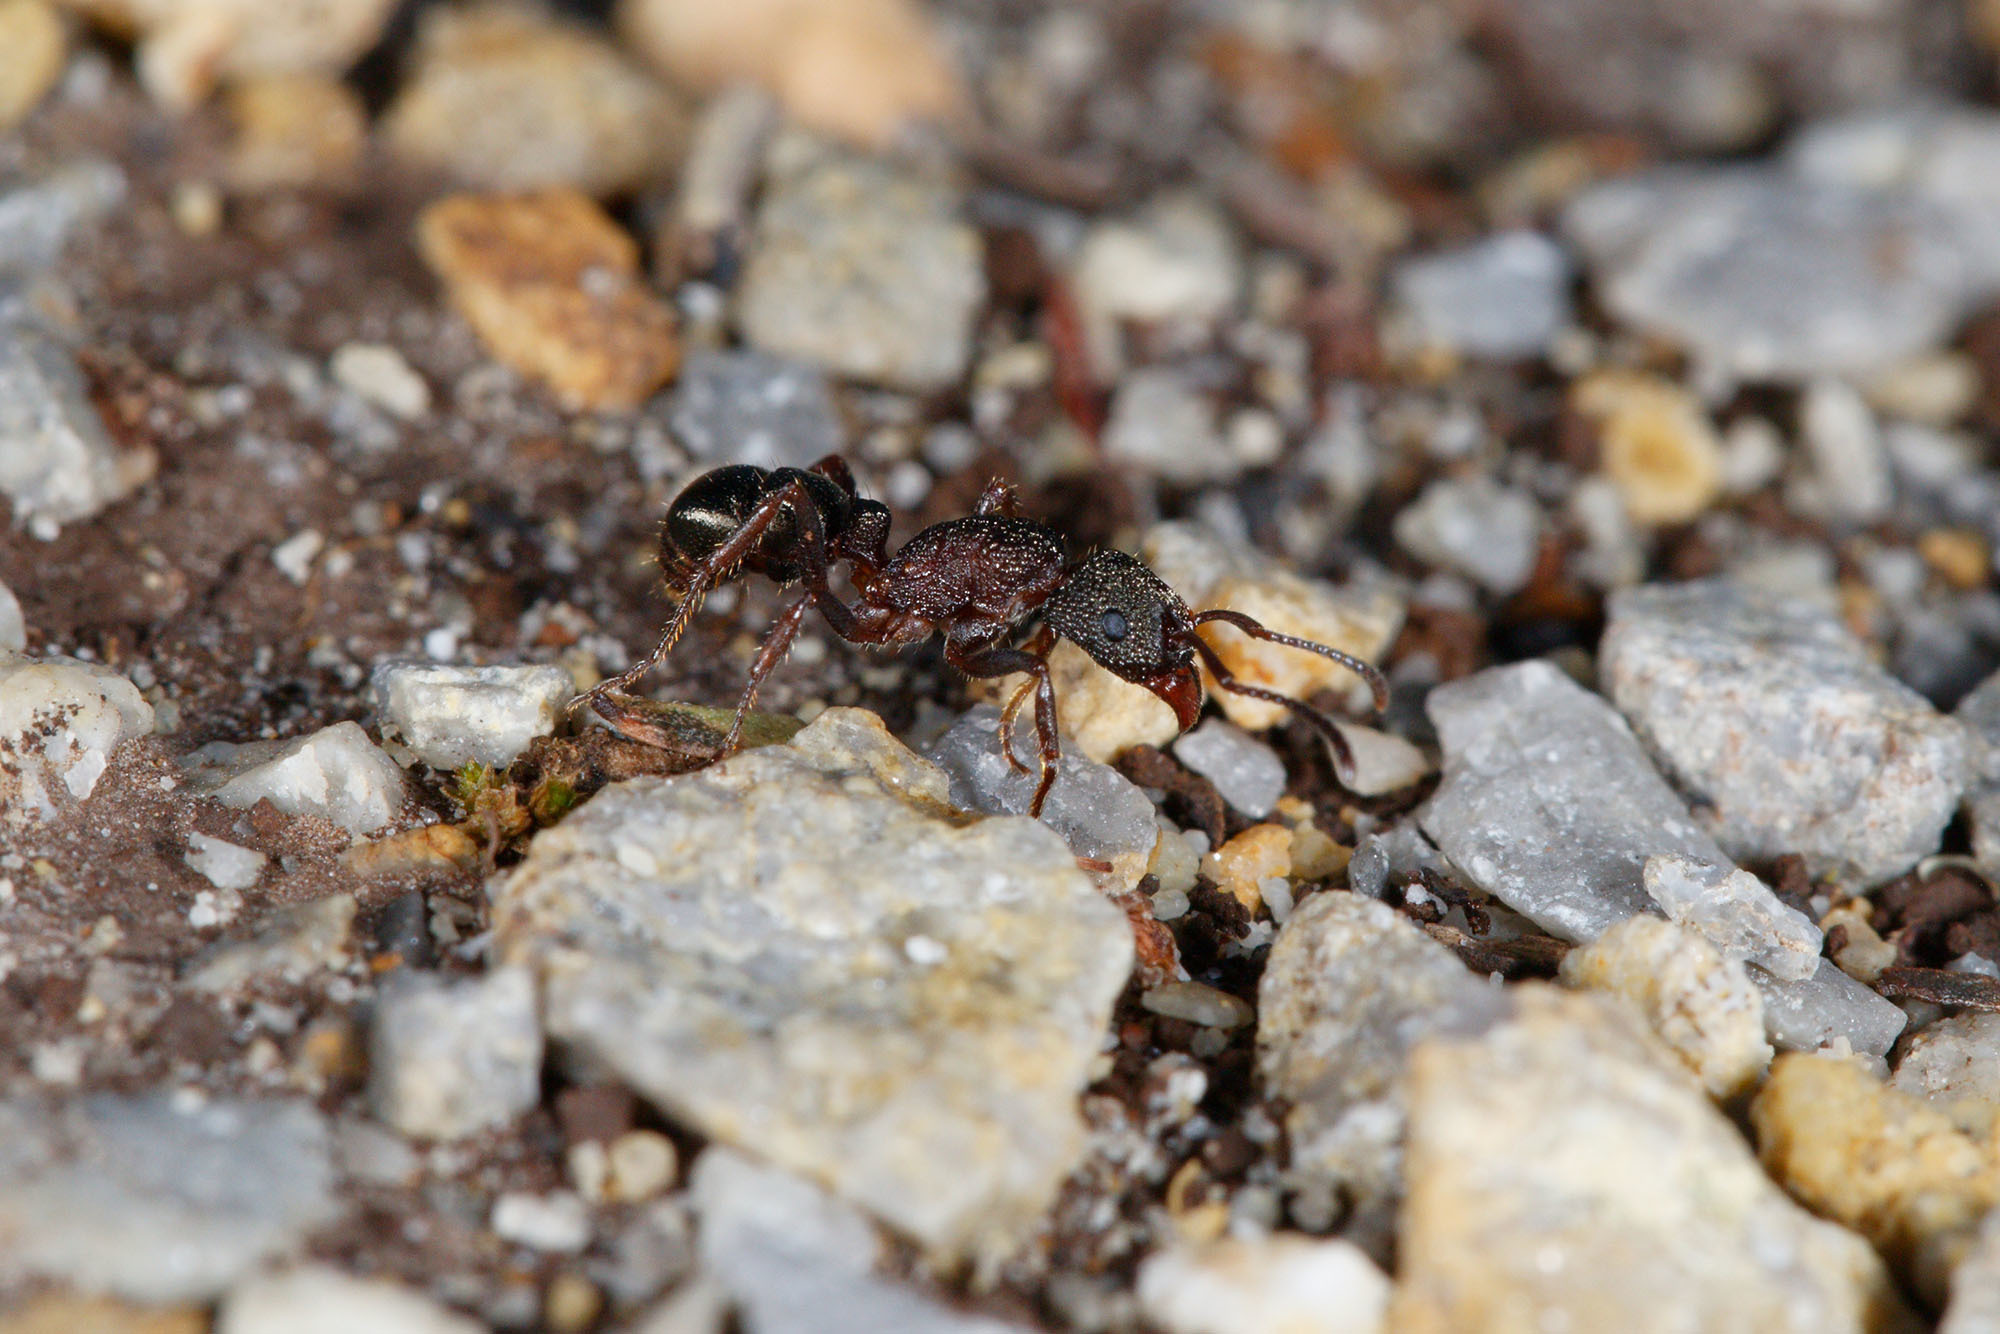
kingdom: Animalia
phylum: Arthropoda
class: Insecta
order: Hymenoptera
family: Formicidae
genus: Rhytidoponera
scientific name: Rhytidoponera tasmaniensis
